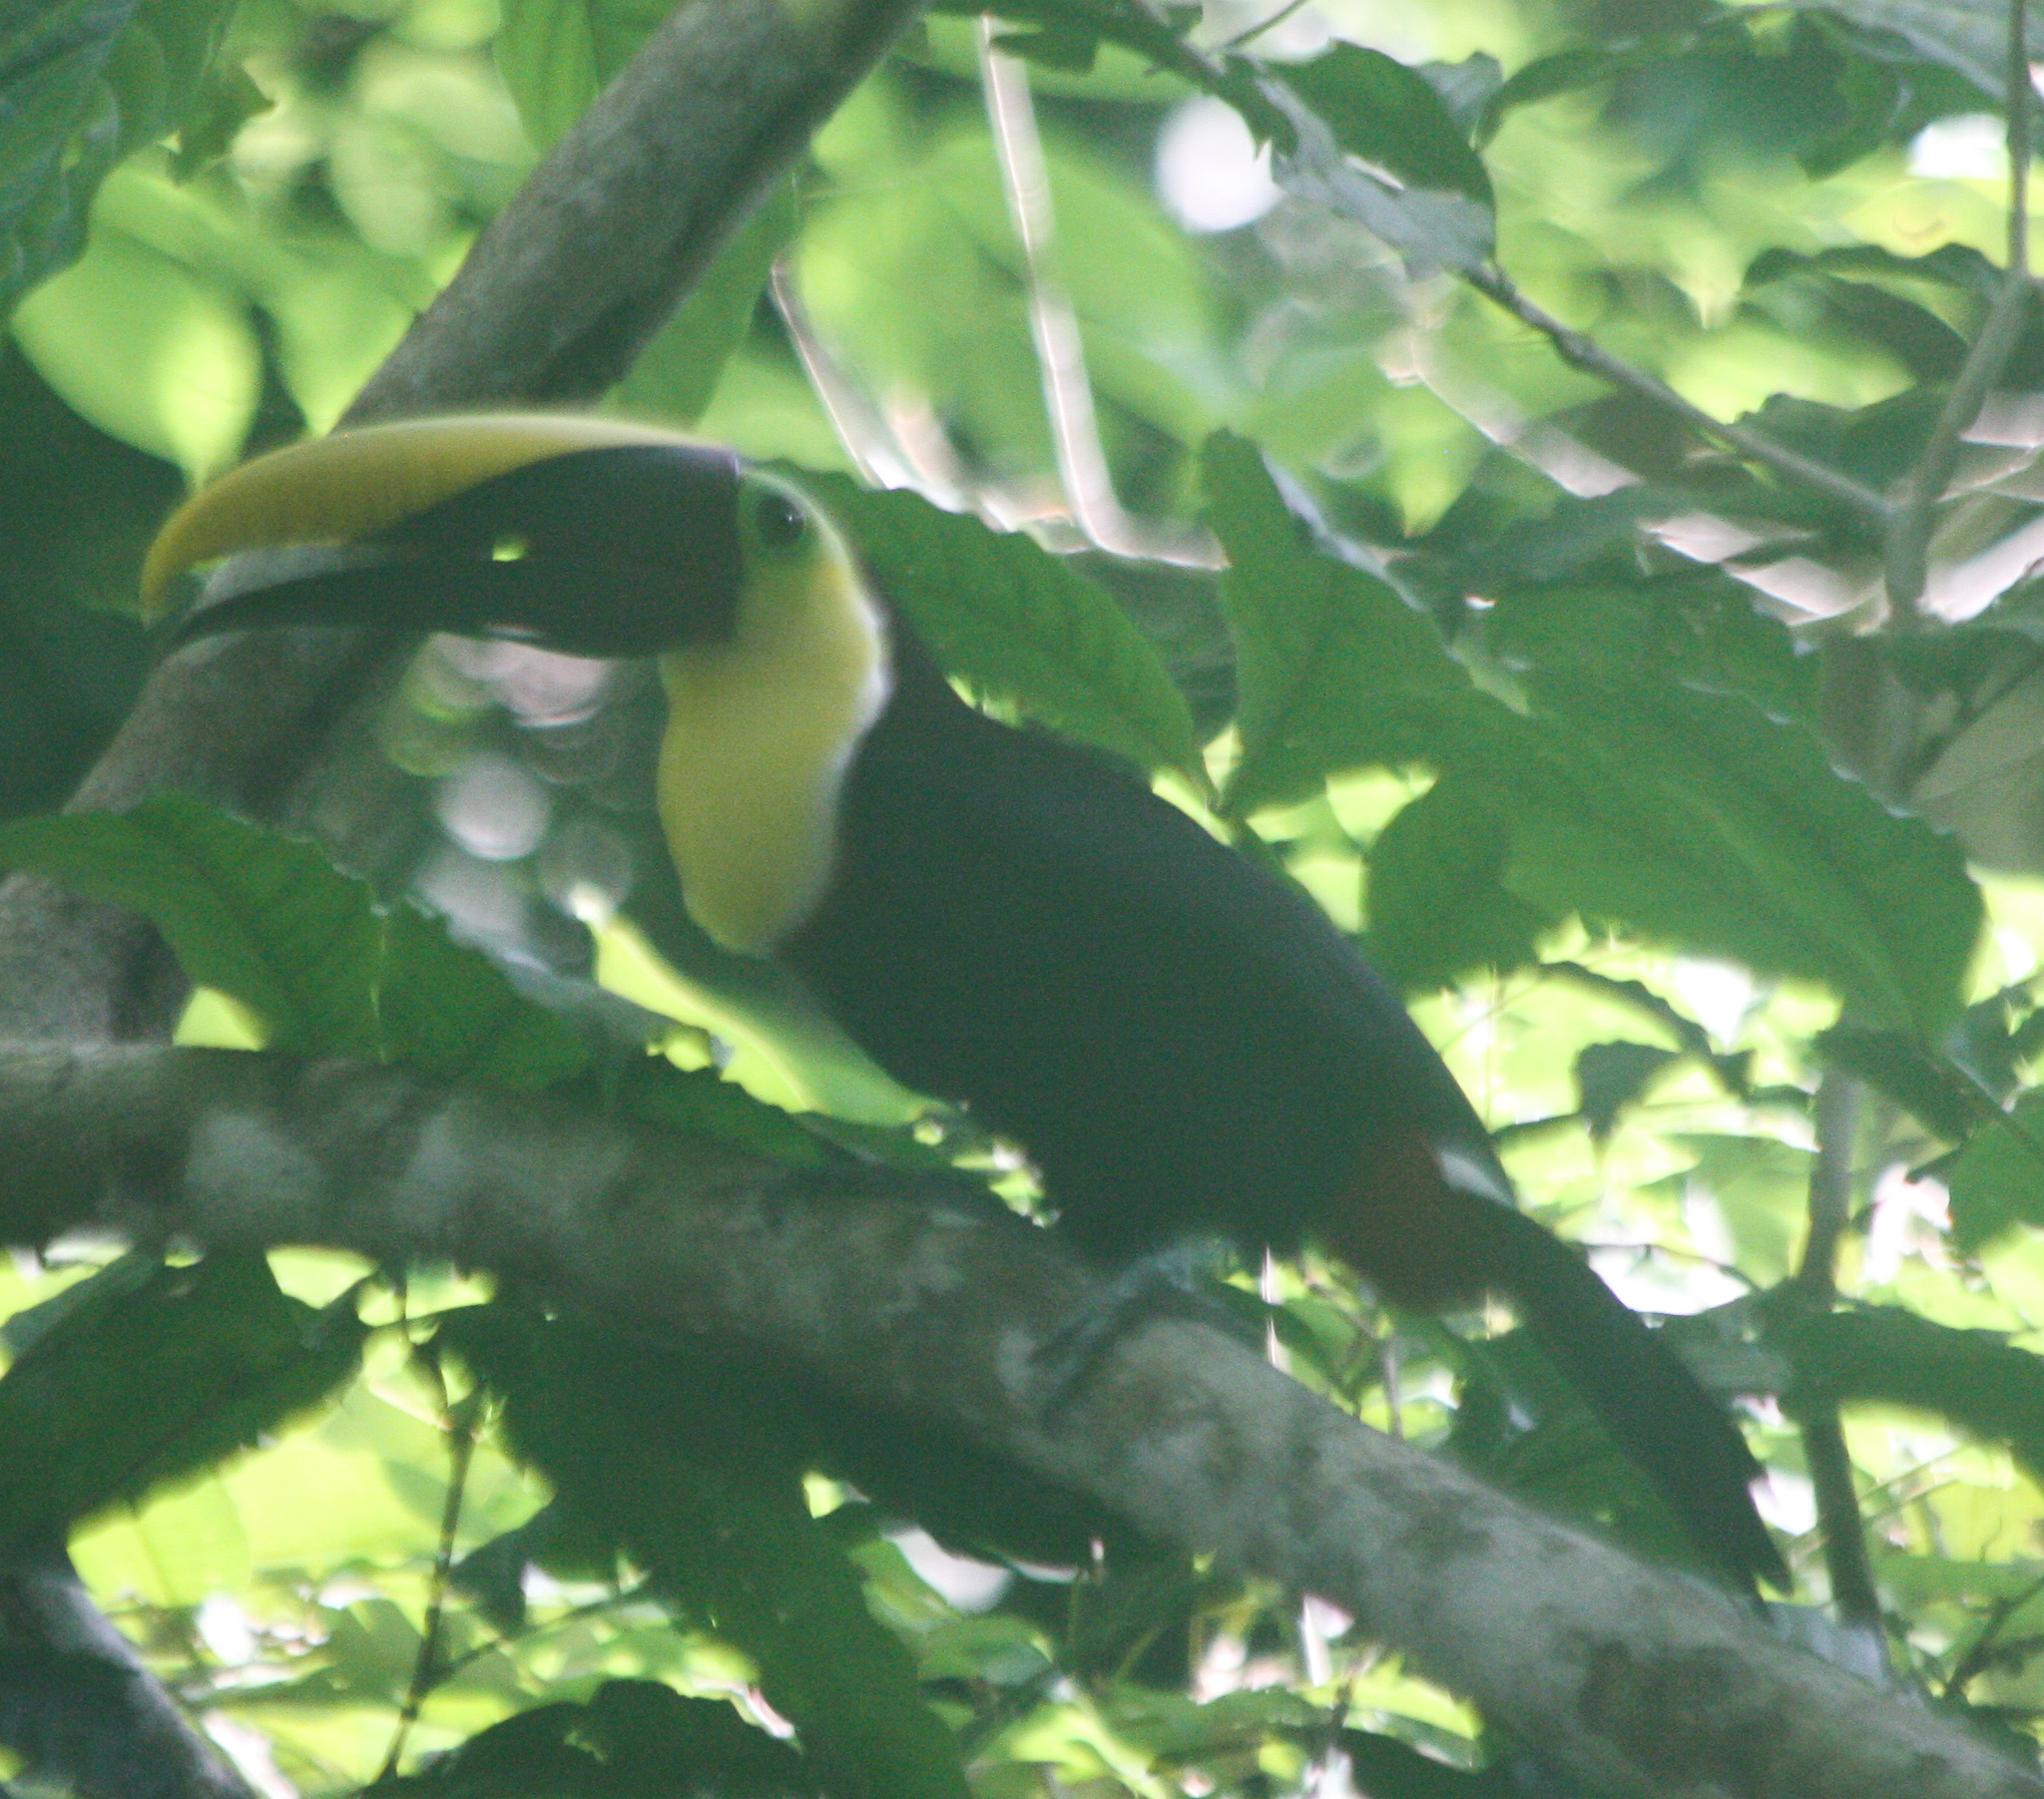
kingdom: Animalia
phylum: Chordata
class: Aves
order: Piciformes
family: Ramphastidae
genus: Ramphastos
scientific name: Ramphastos ambiguus
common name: Yellow-throated toucan
